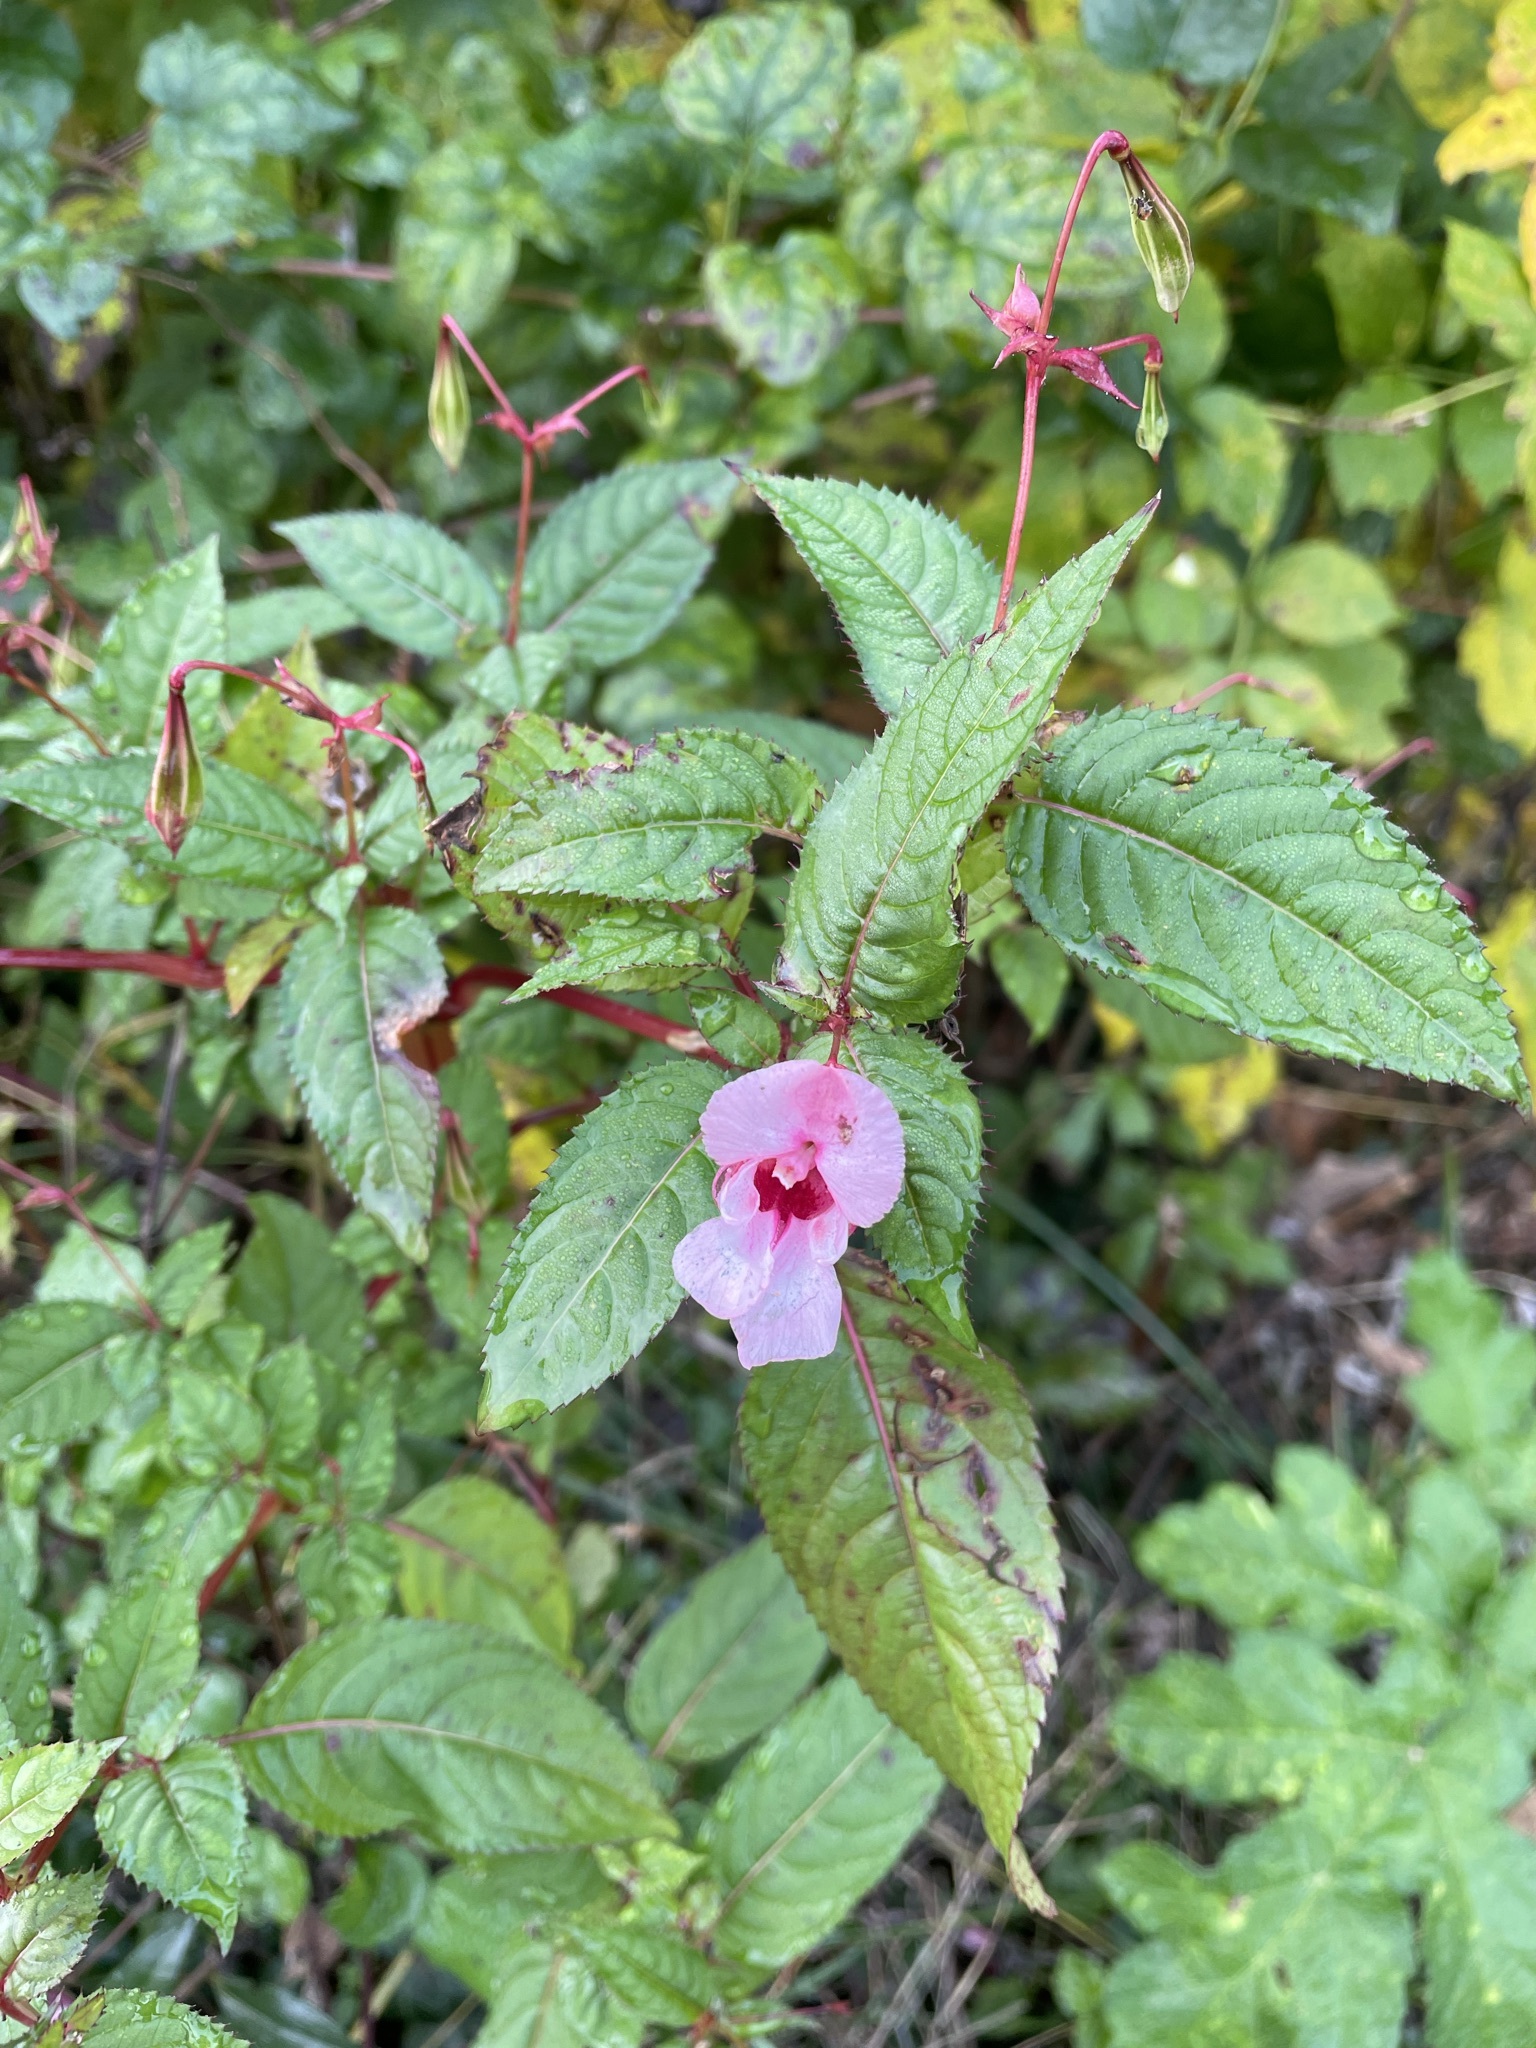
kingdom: Plantae
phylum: Tracheophyta
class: Magnoliopsida
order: Ericales
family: Balsaminaceae
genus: Impatiens
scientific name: Impatiens glandulifera
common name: Himalayan balsam
